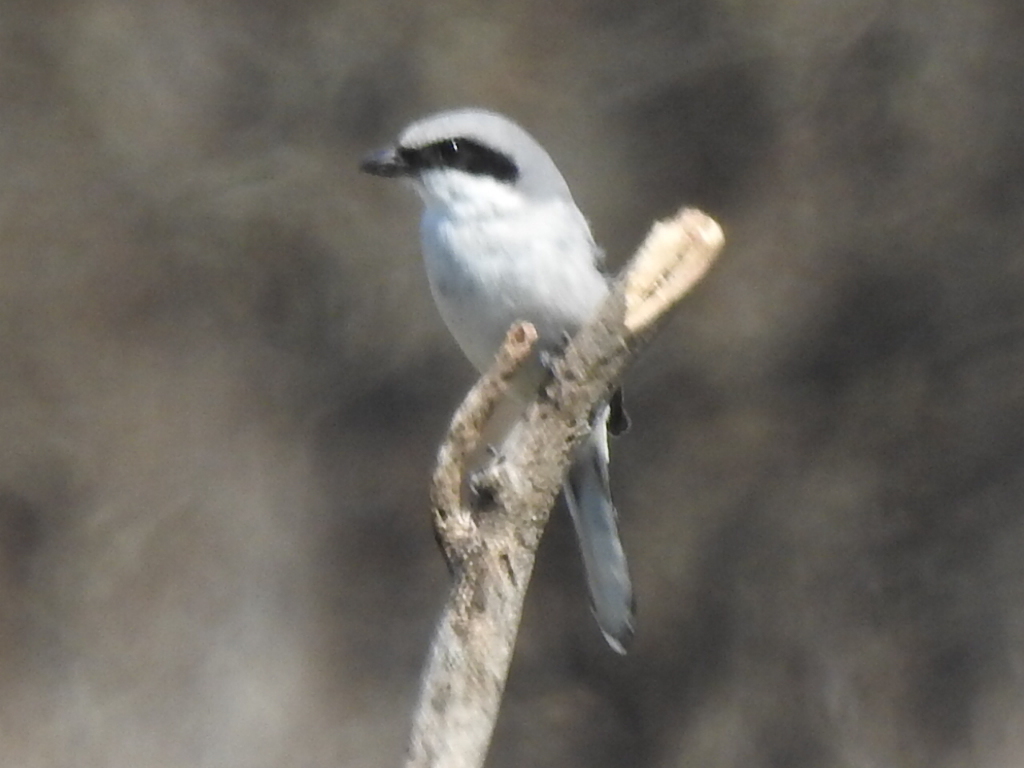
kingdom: Animalia
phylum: Chordata
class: Aves
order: Passeriformes
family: Laniidae
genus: Lanius
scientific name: Lanius ludovicianus
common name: Loggerhead shrike
